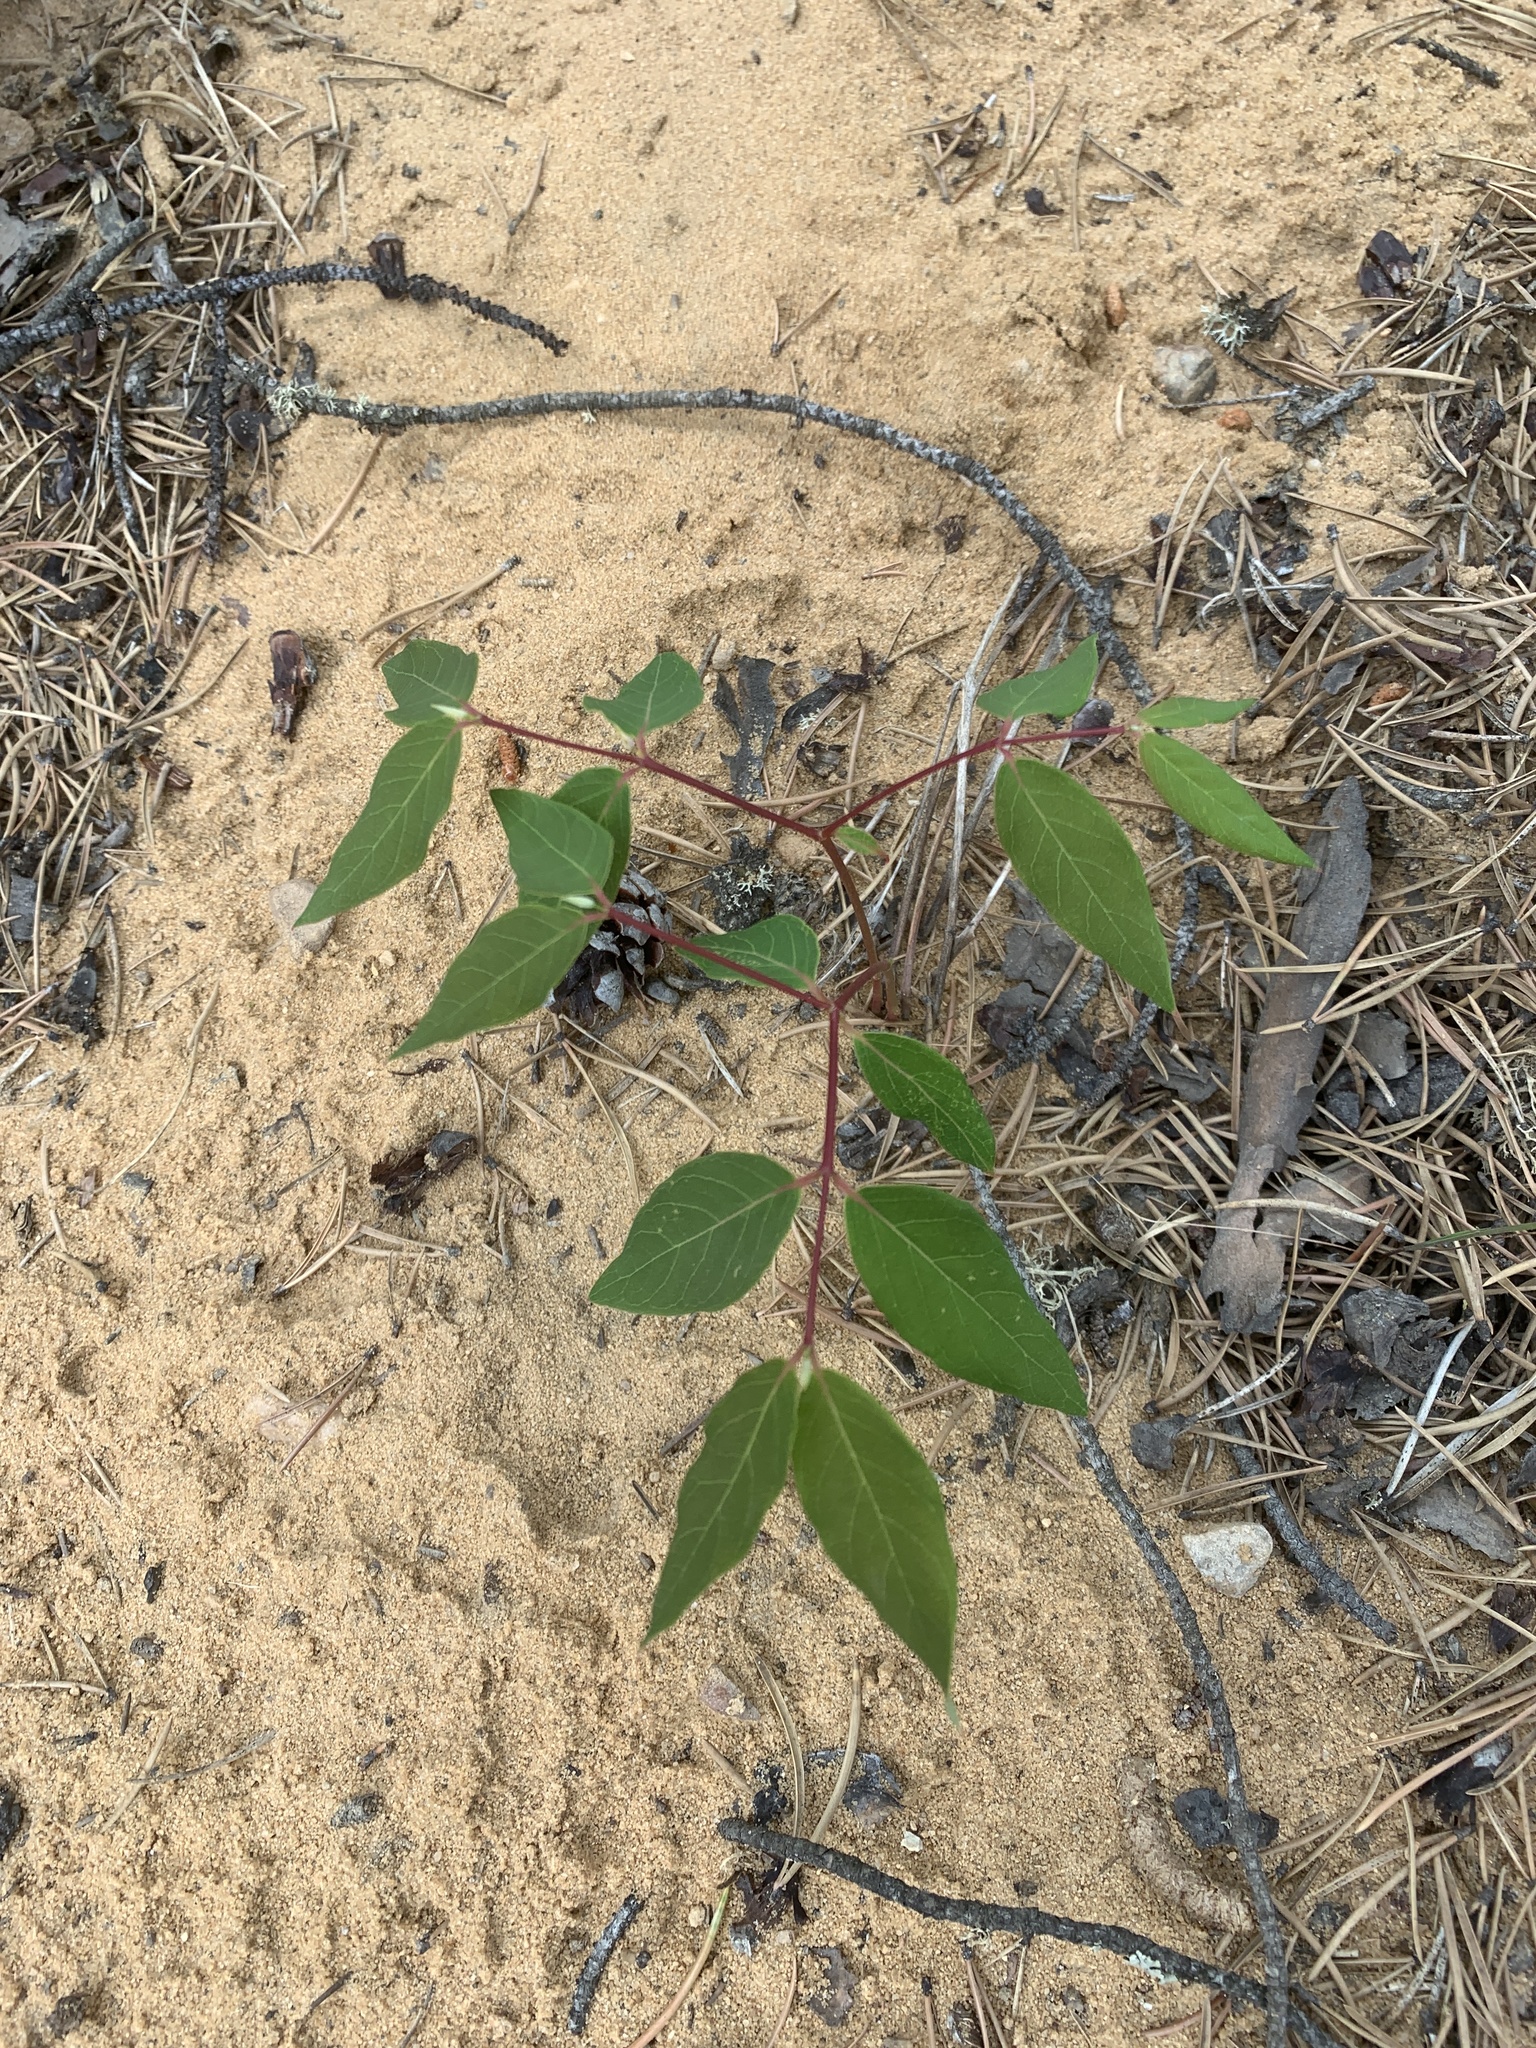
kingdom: Plantae
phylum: Tracheophyta
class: Magnoliopsida
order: Gentianales
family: Apocynaceae
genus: Apocynum
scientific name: Apocynum androsaemifolium
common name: Spreading dogbane
